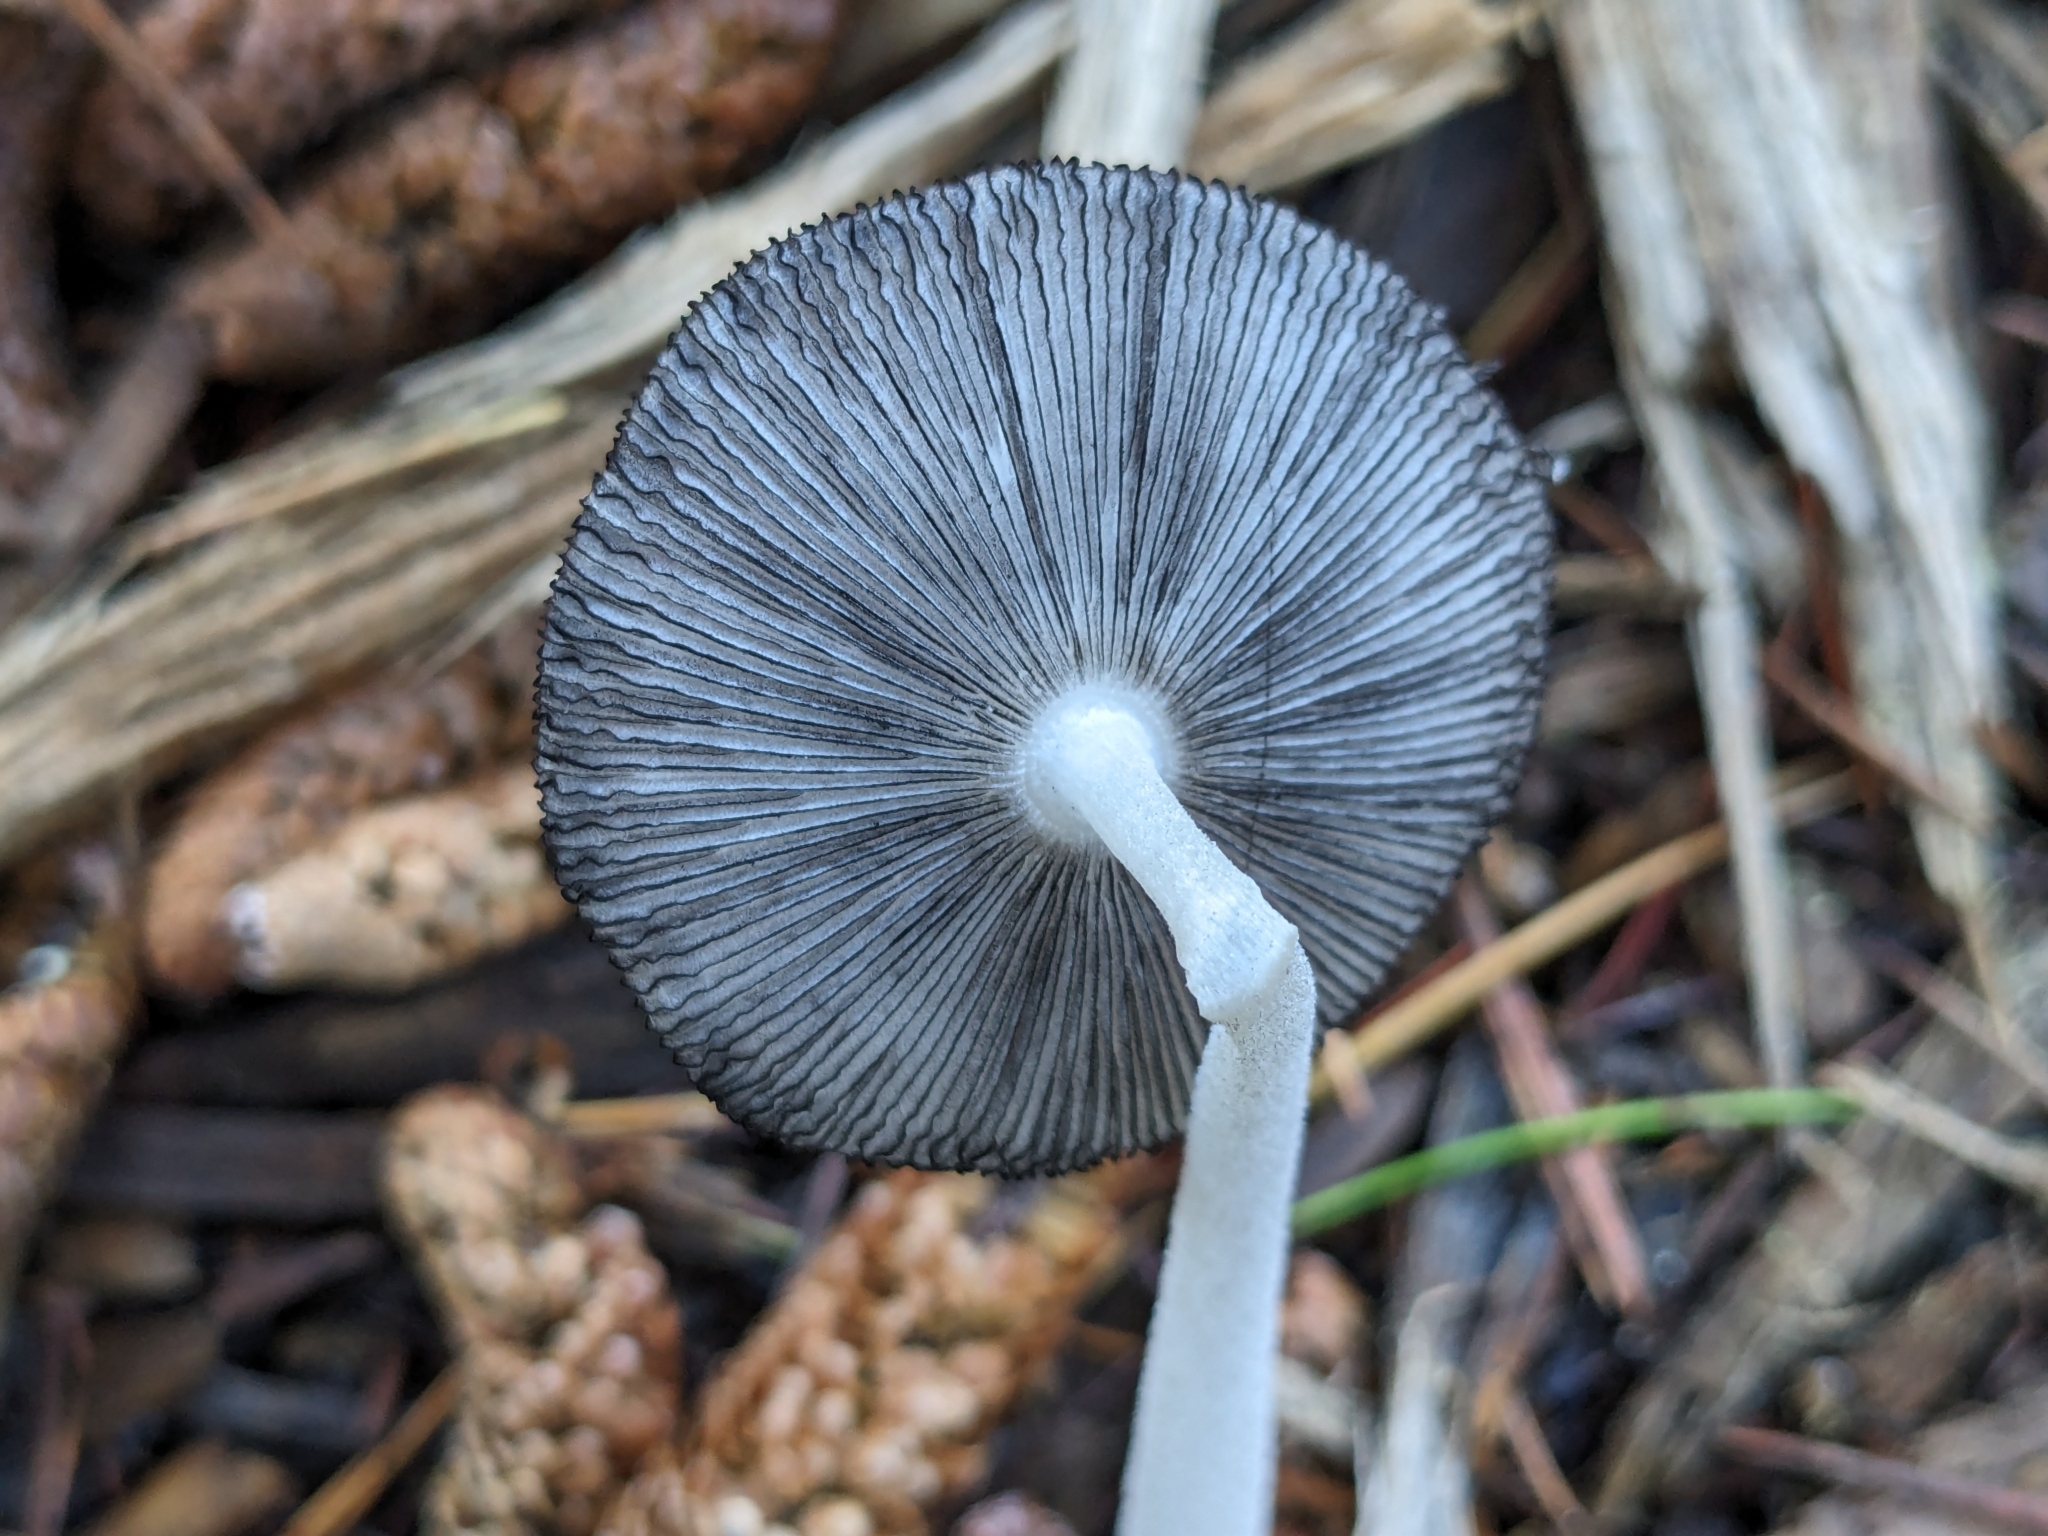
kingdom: Fungi
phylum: Basidiomycota
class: Agaricomycetes
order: Agaricales
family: Psathyrellaceae
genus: Coprinopsis
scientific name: Coprinopsis lagopus
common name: Hare'sfoot inkcap
